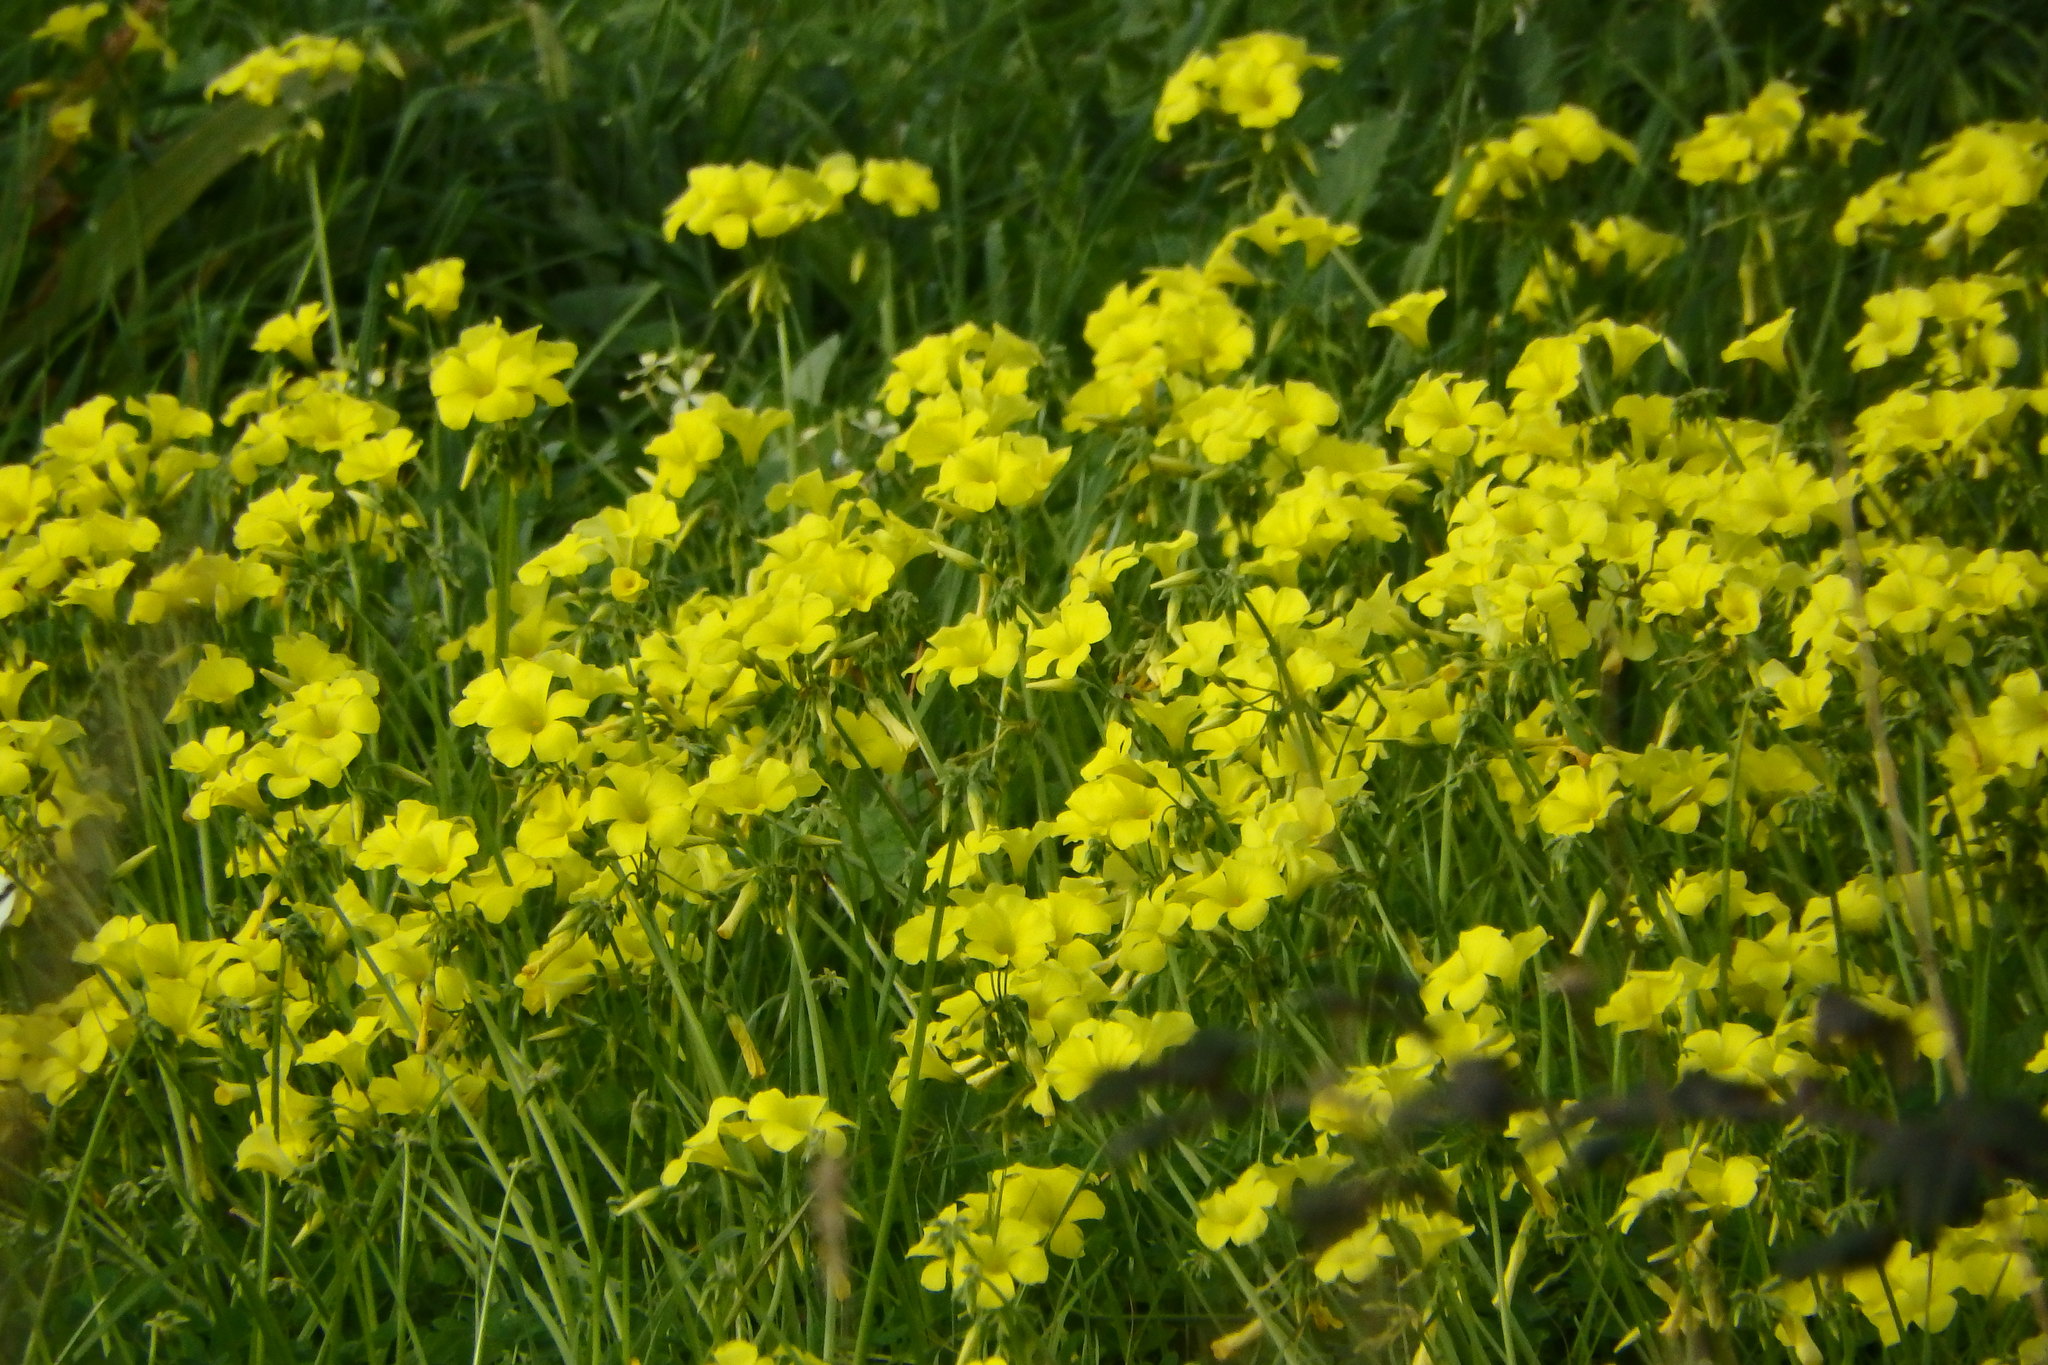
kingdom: Plantae
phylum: Tracheophyta
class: Magnoliopsida
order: Oxalidales
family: Oxalidaceae
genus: Oxalis
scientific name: Oxalis pes-caprae
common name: Bermuda-buttercup
